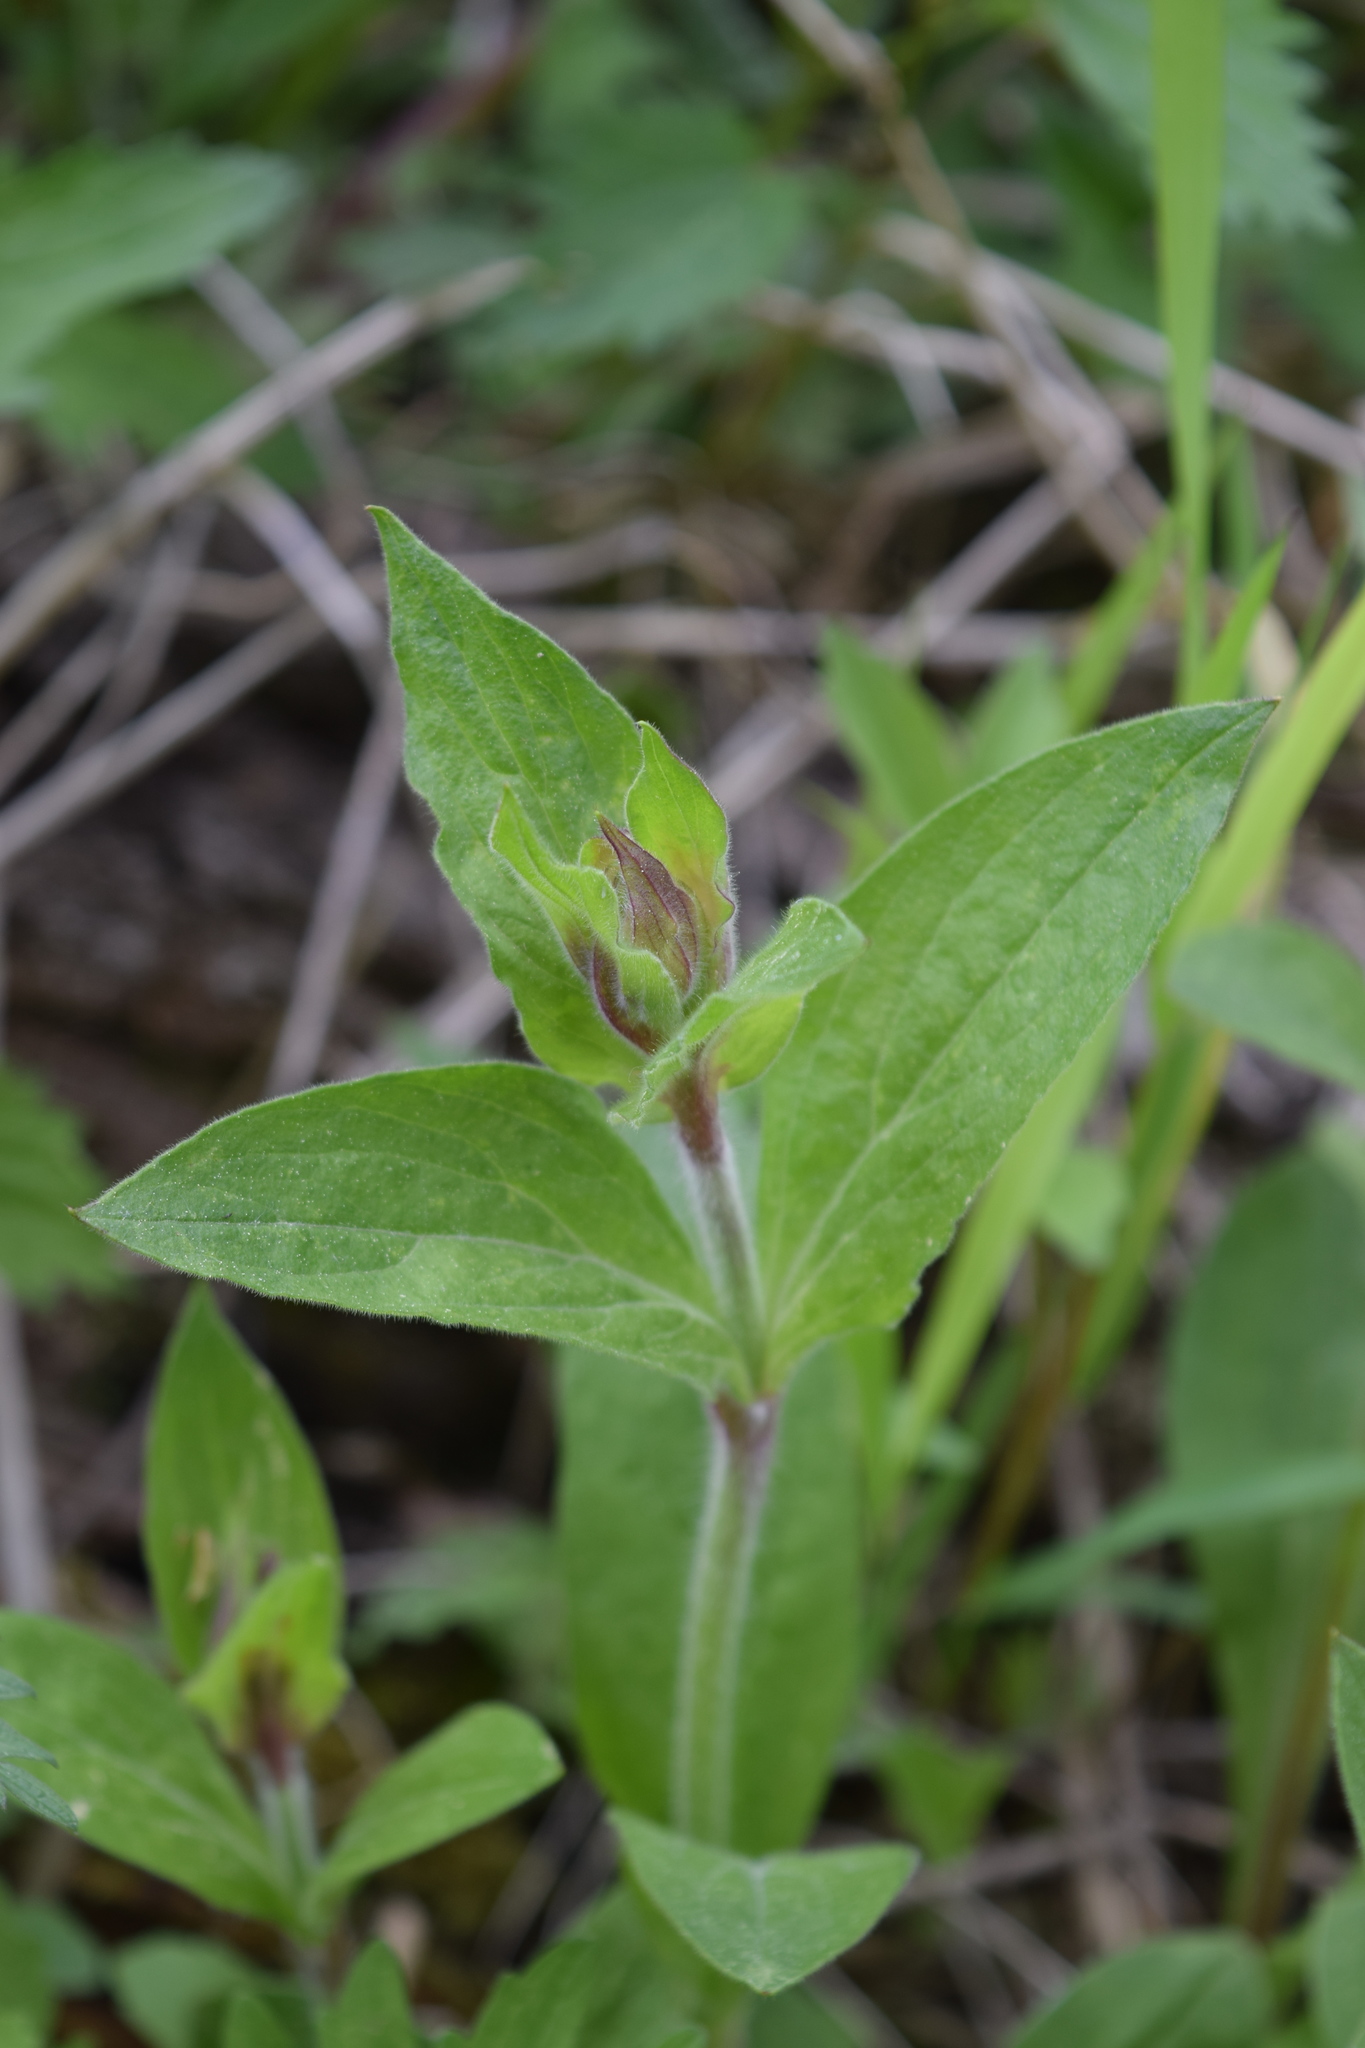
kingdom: Plantae
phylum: Tracheophyta
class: Magnoliopsida
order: Caryophyllales
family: Caryophyllaceae
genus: Silene
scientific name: Silene dioica
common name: Red campion
